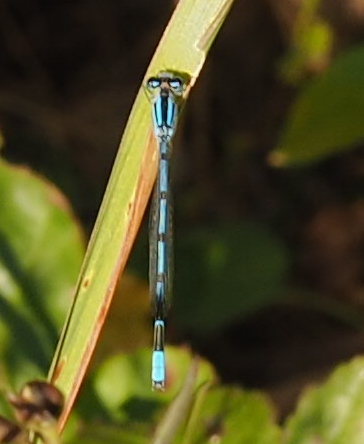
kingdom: Animalia
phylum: Arthropoda
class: Insecta
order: Odonata
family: Coenagrionidae
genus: Enallagma
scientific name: Enallagma civile
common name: Damselfly
